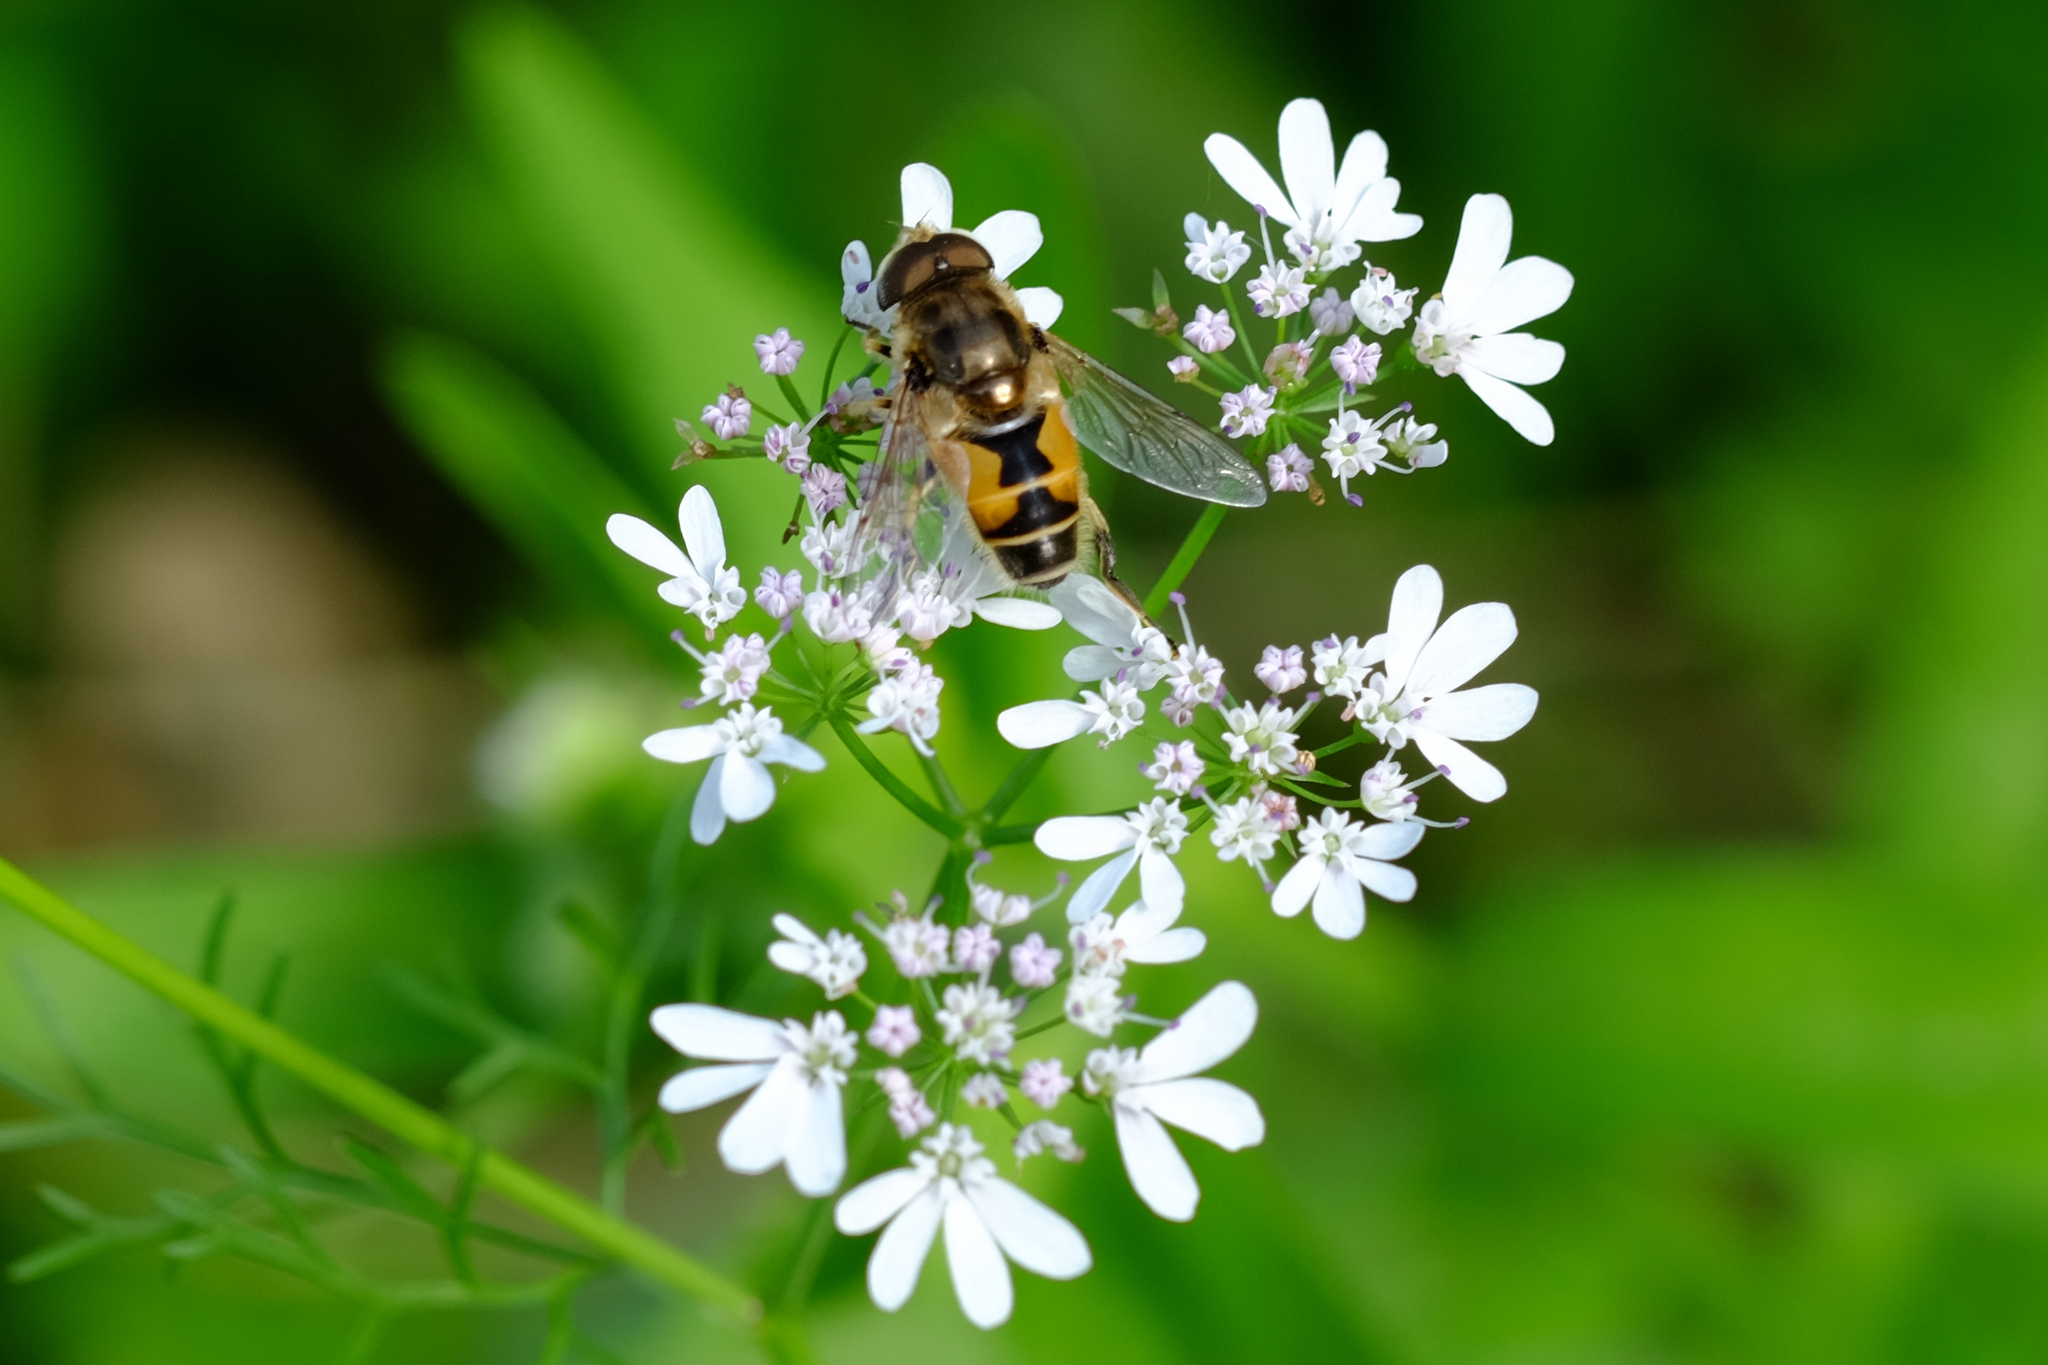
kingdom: Animalia
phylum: Arthropoda
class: Insecta
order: Diptera
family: Syrphidae
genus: Eristalis
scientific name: Eristalis arbustorum
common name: Hover fly
